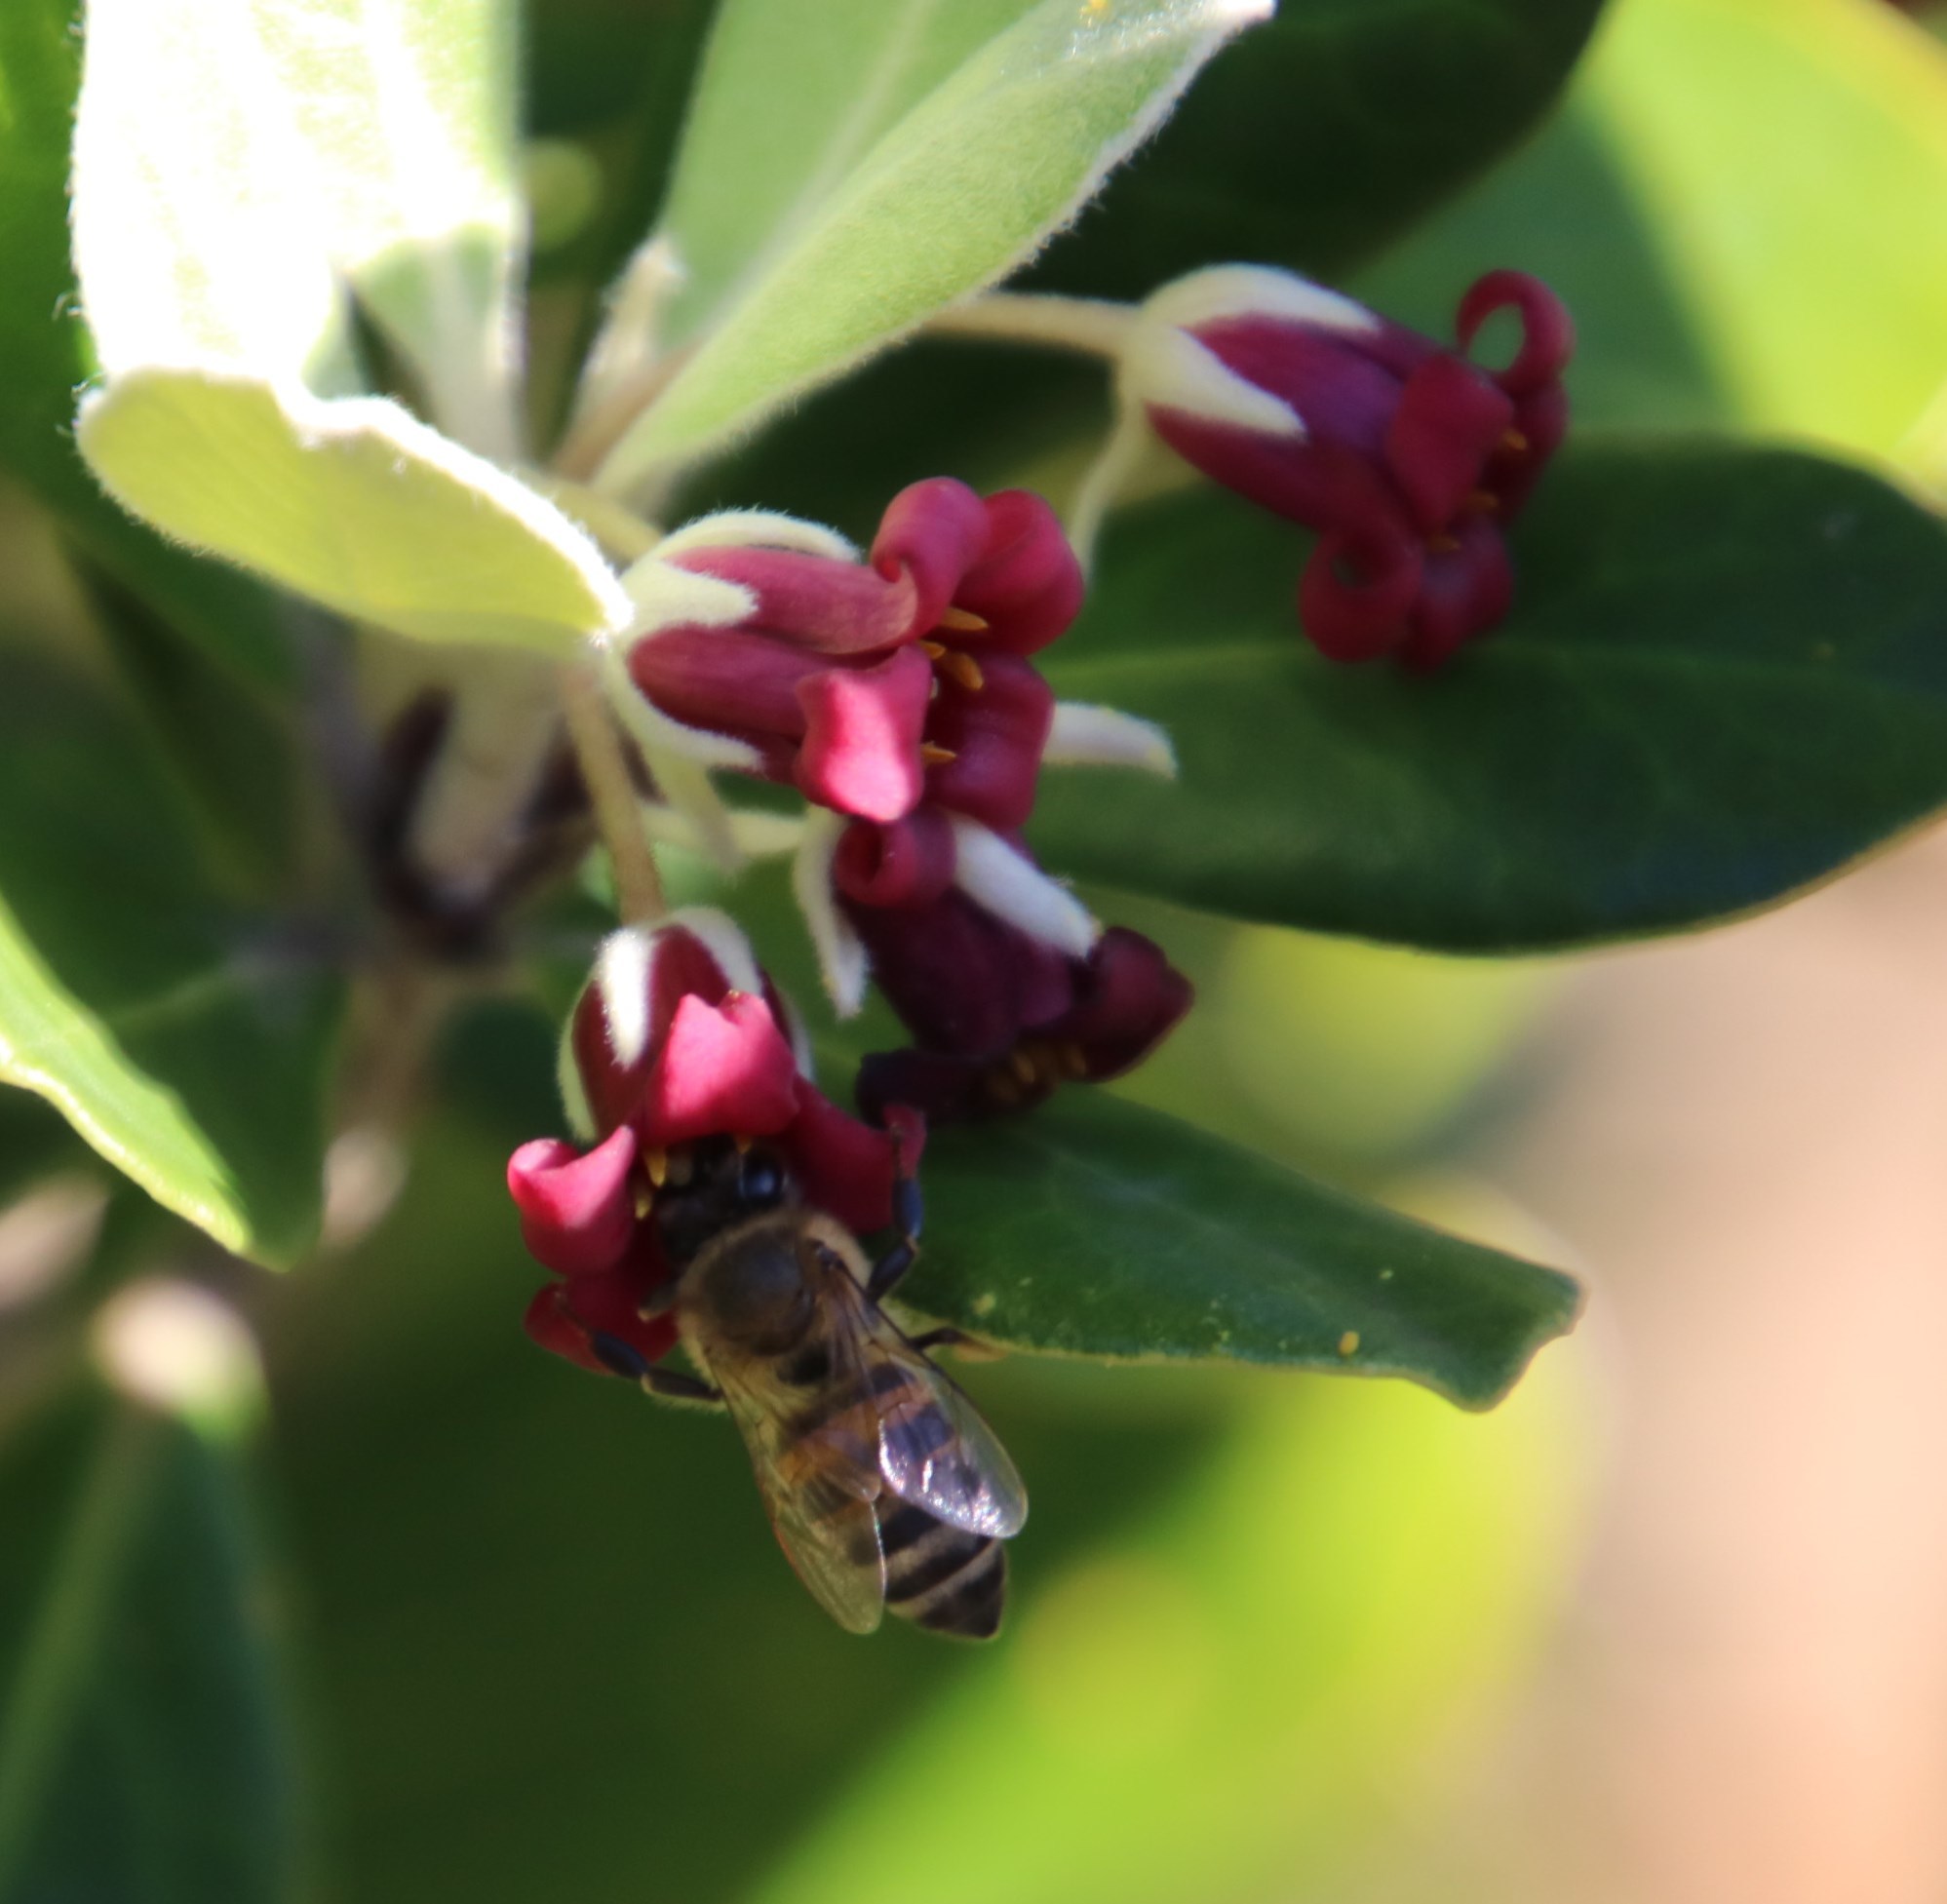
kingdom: Plantae
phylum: Tracheophyta
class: Magnoliopsida
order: Apiales
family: Pittosporaceae
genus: Pittosporum
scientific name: Pittosporum crassifolium
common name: Karo
